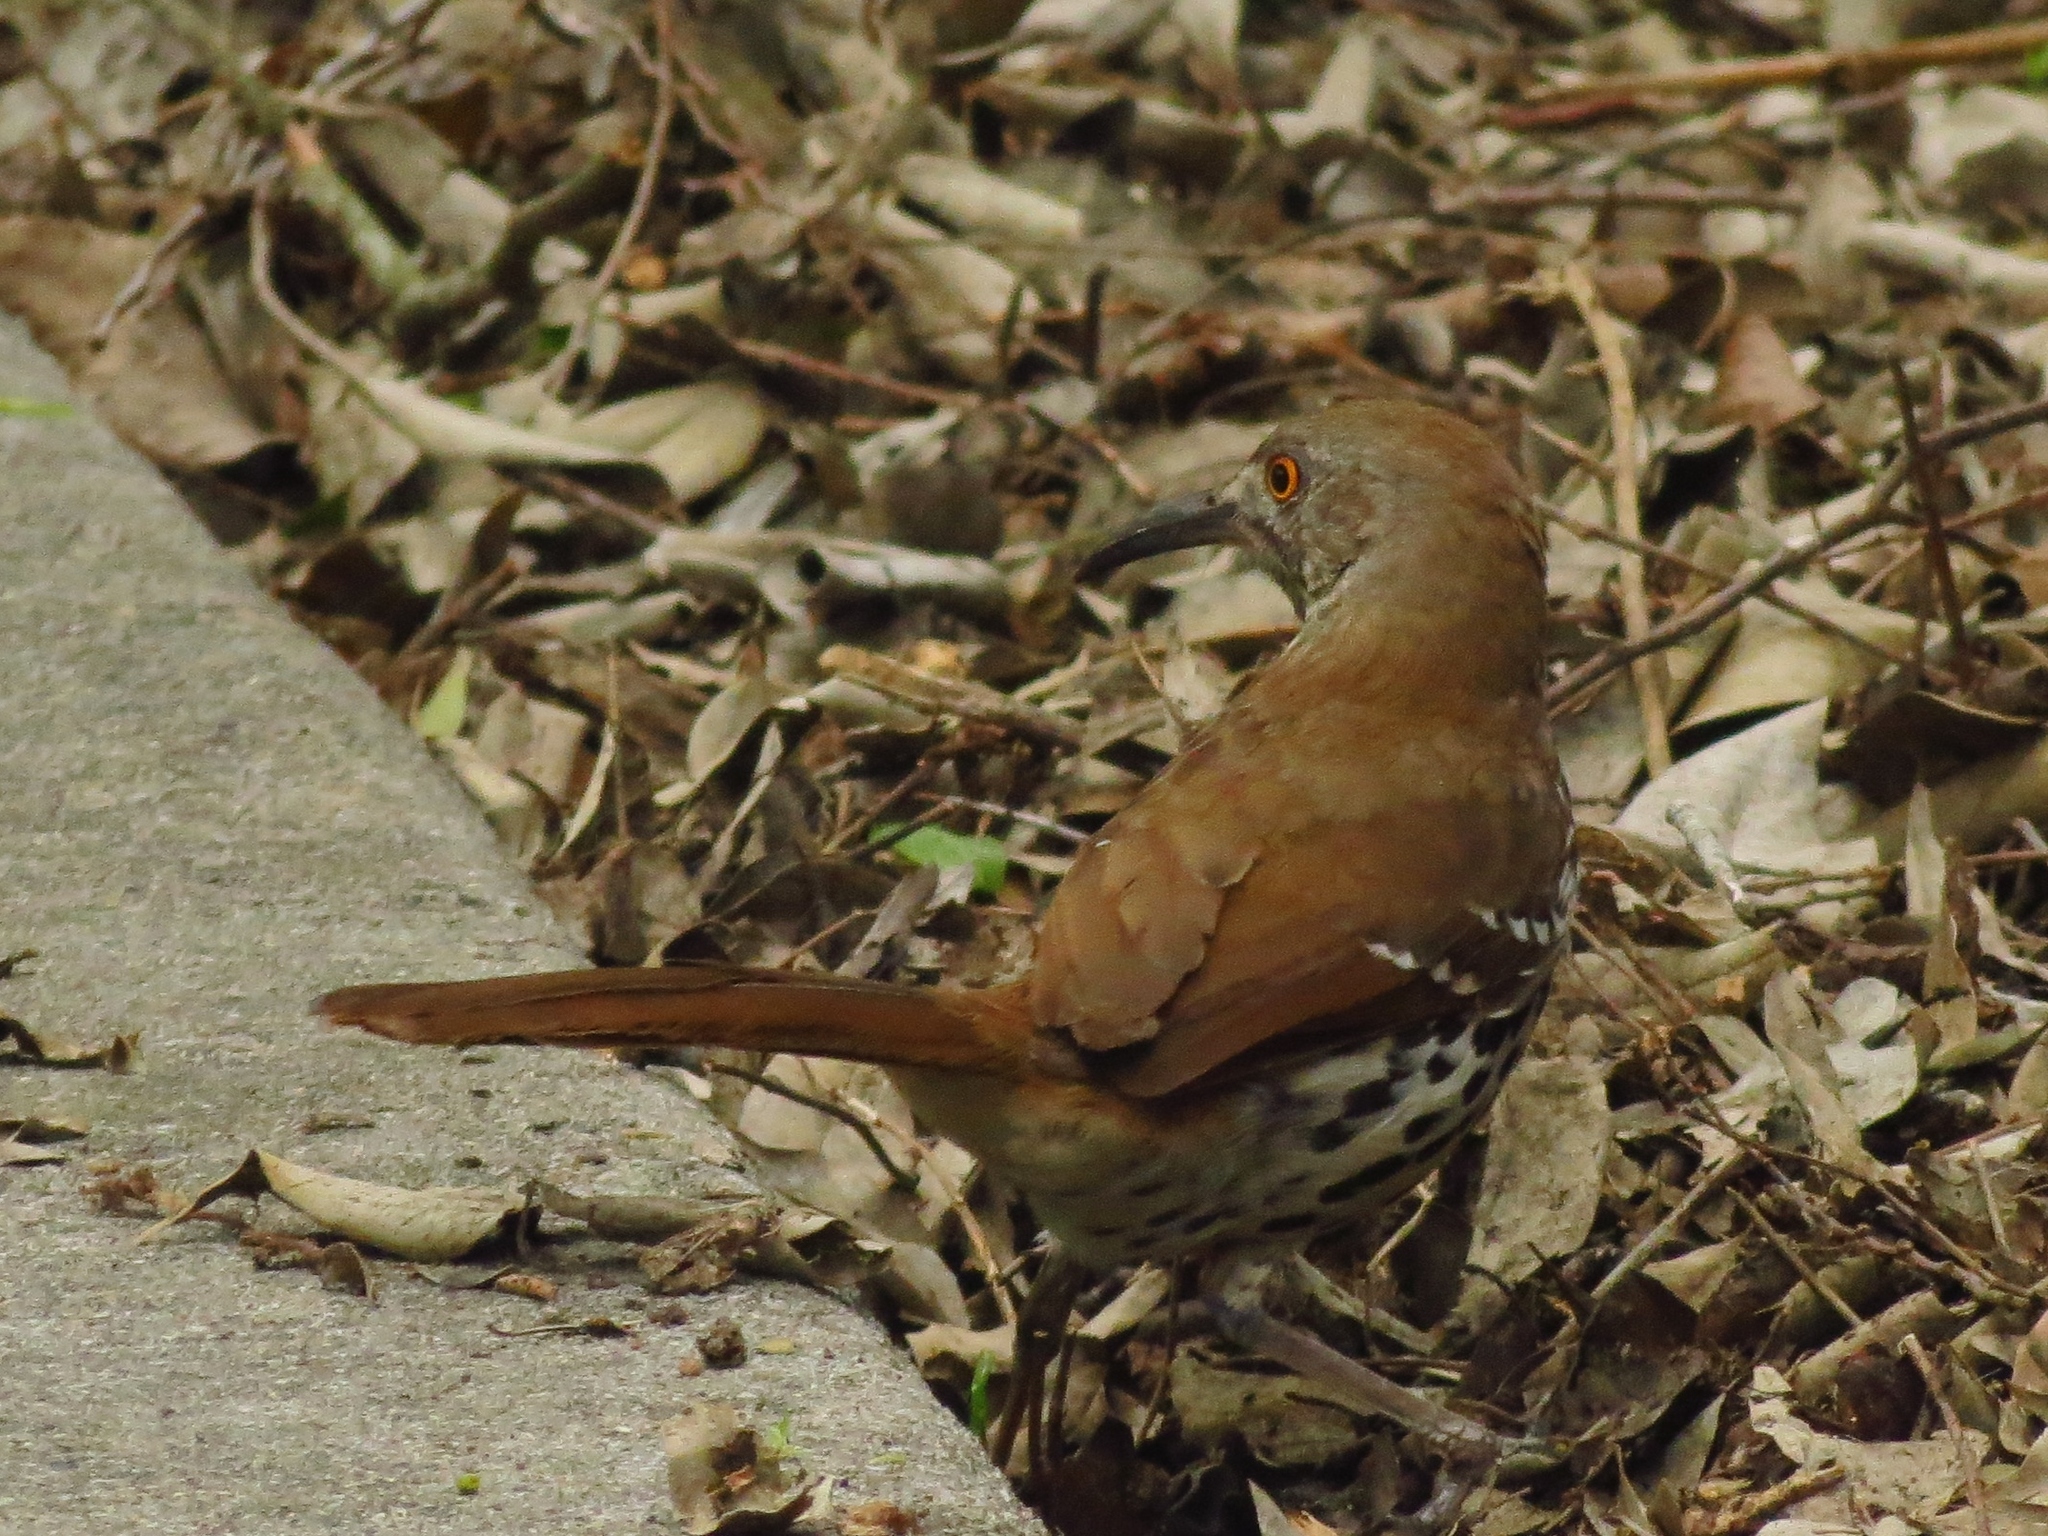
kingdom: Animalia
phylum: Chordata
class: Aves
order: Passeriformes
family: Mimidae
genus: Toxostoma
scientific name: Toxostoma longirostre
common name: Long-billed thrasher
